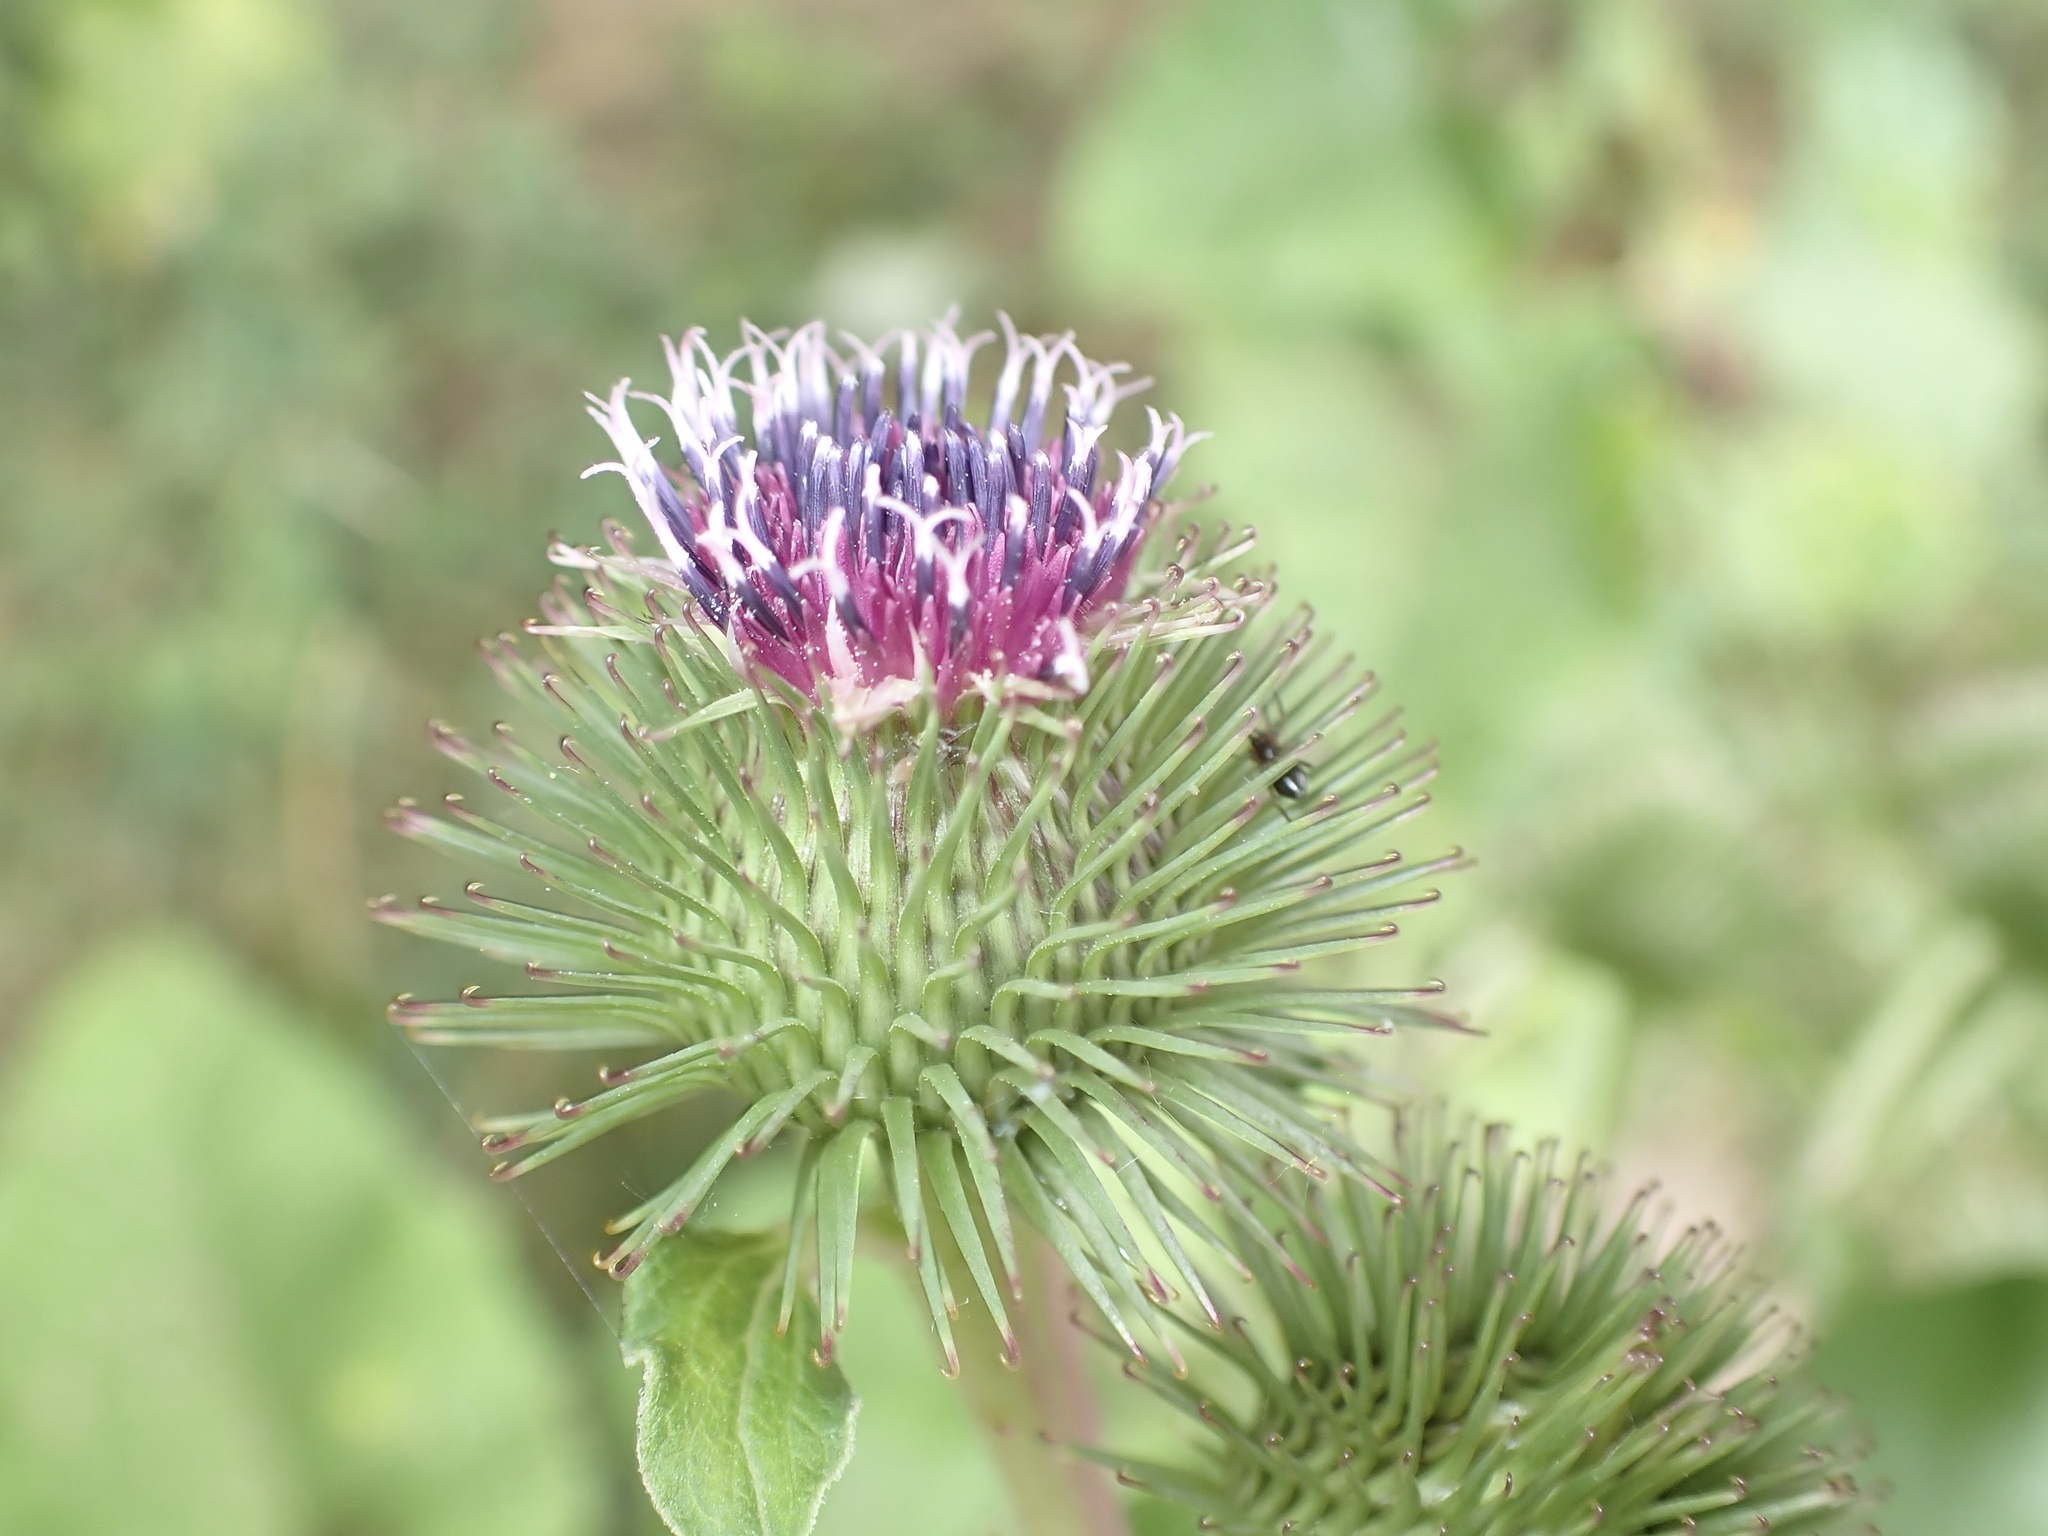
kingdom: Plantae
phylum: Tracheophyta
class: Magnoliopsida
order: Asterales
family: Asteraceae
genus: Arctium
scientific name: Arctium lappa
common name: Greater burdock
